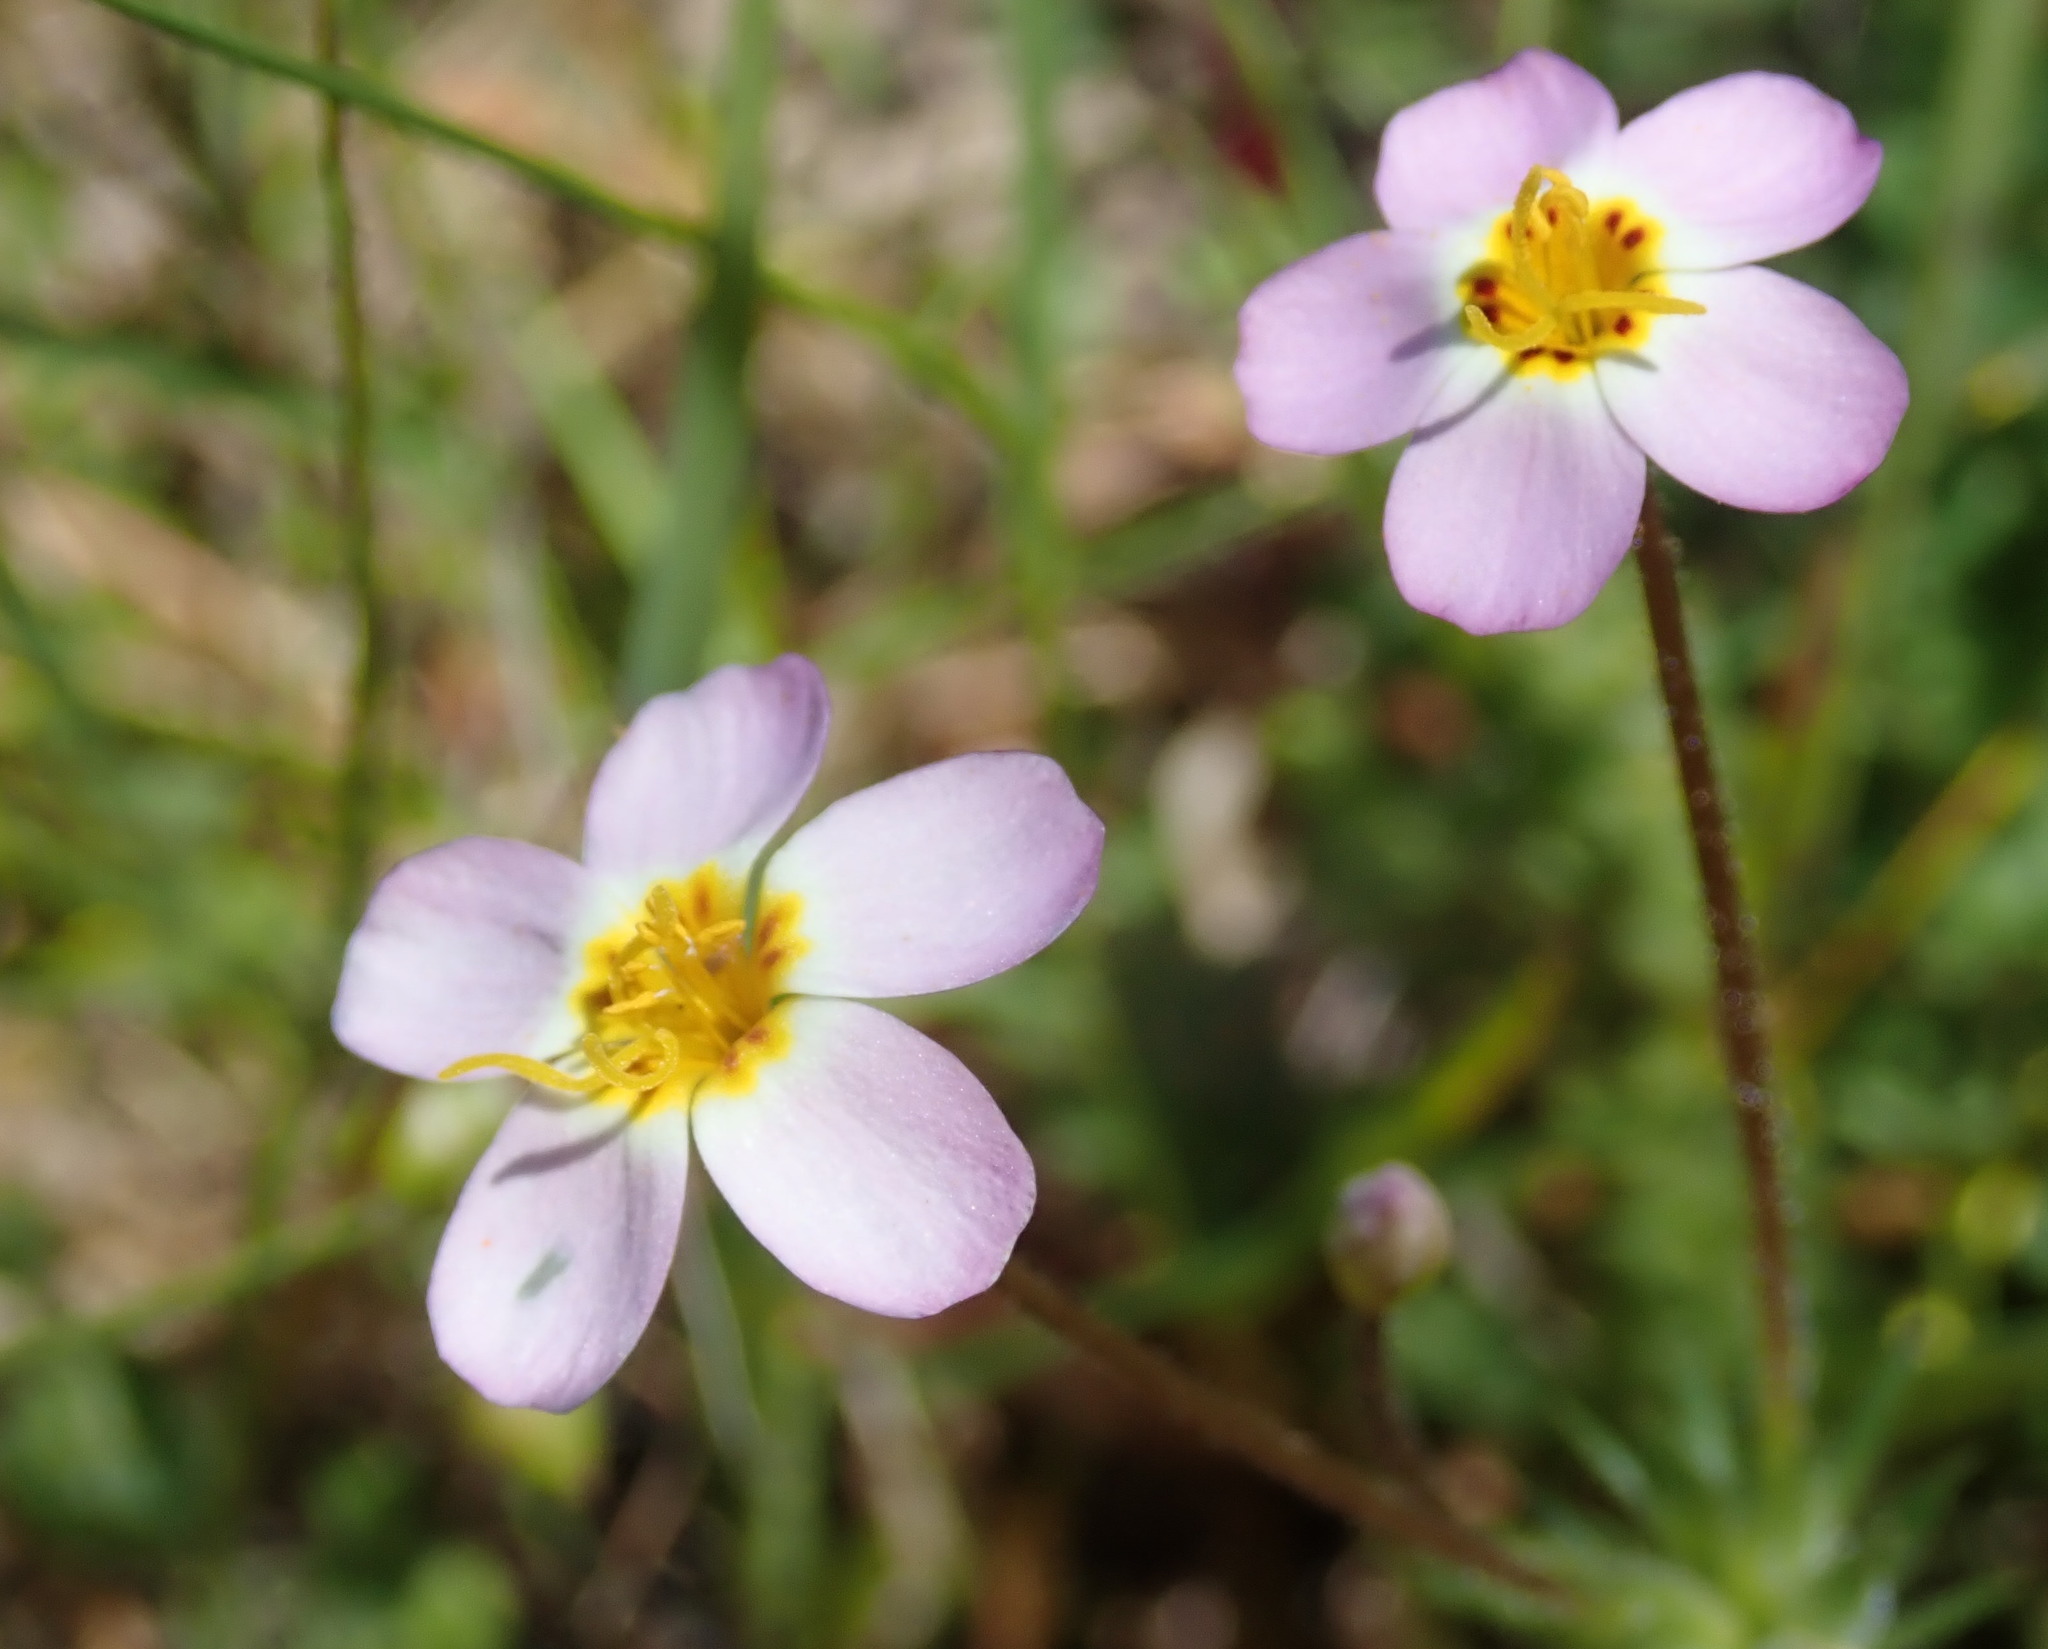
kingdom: Plantae
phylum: Tracheophyta
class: Magnoliopsida
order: Ericales
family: Polemoniaceae
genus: Leptosiphon
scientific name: Leptosiphon parviflorus
